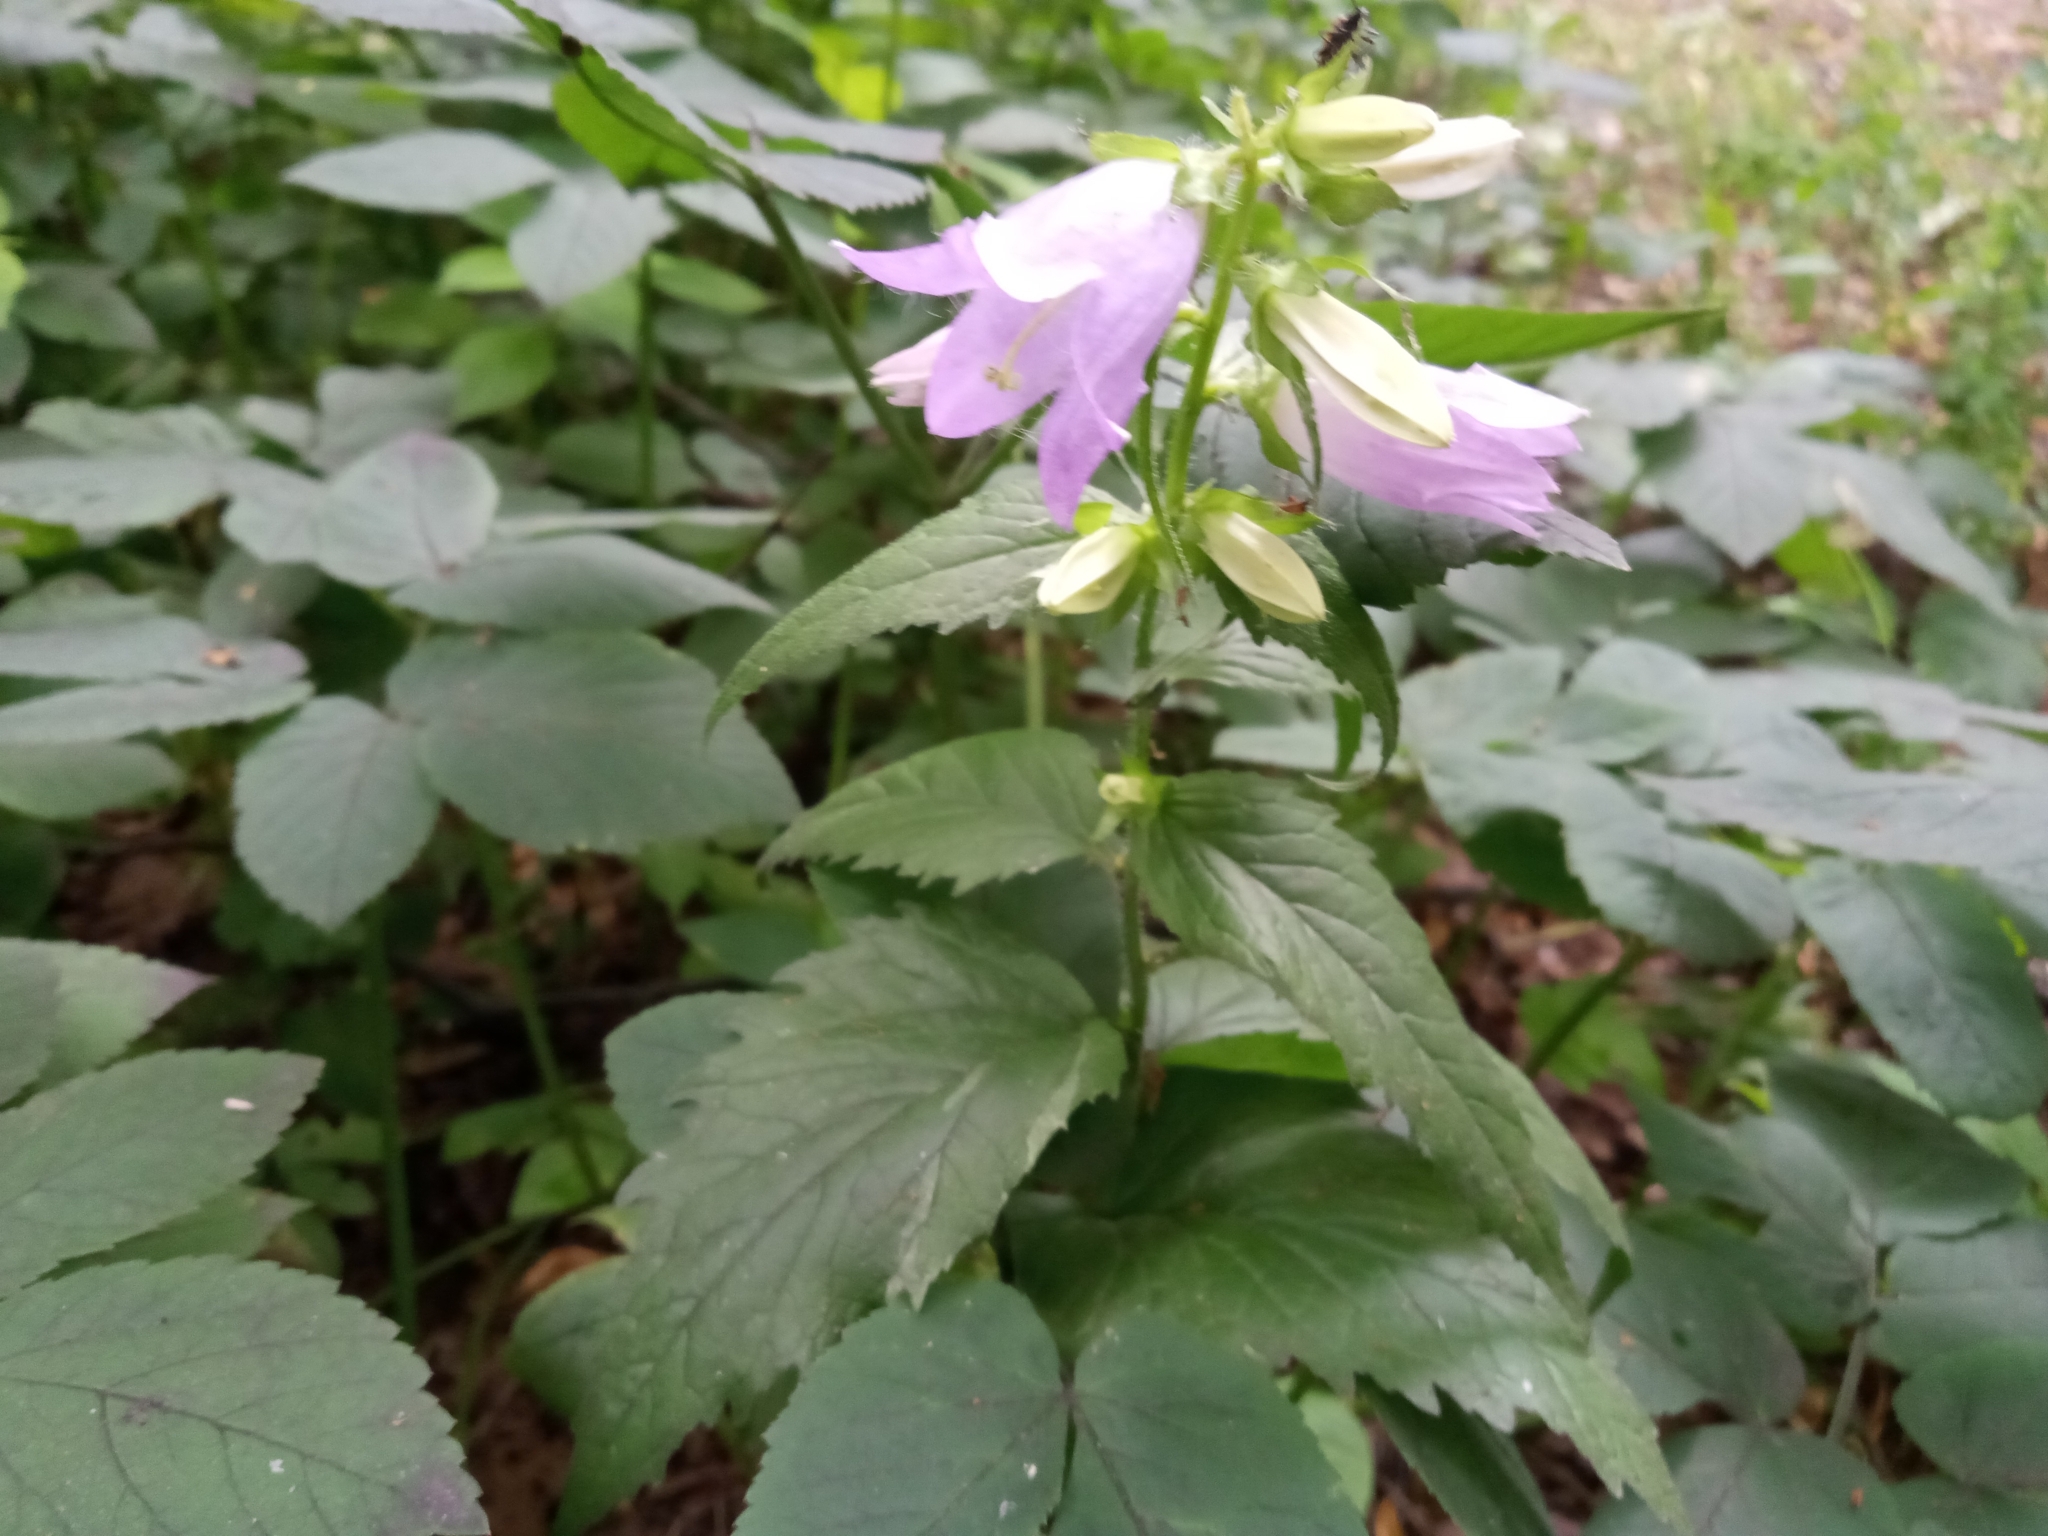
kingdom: Plantae
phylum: Tracheophyta
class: Magnoliopsida
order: Asterales
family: Campanulaceae
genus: Campanula
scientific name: Campanula trachelium
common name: Nettle-leaved bellflower
